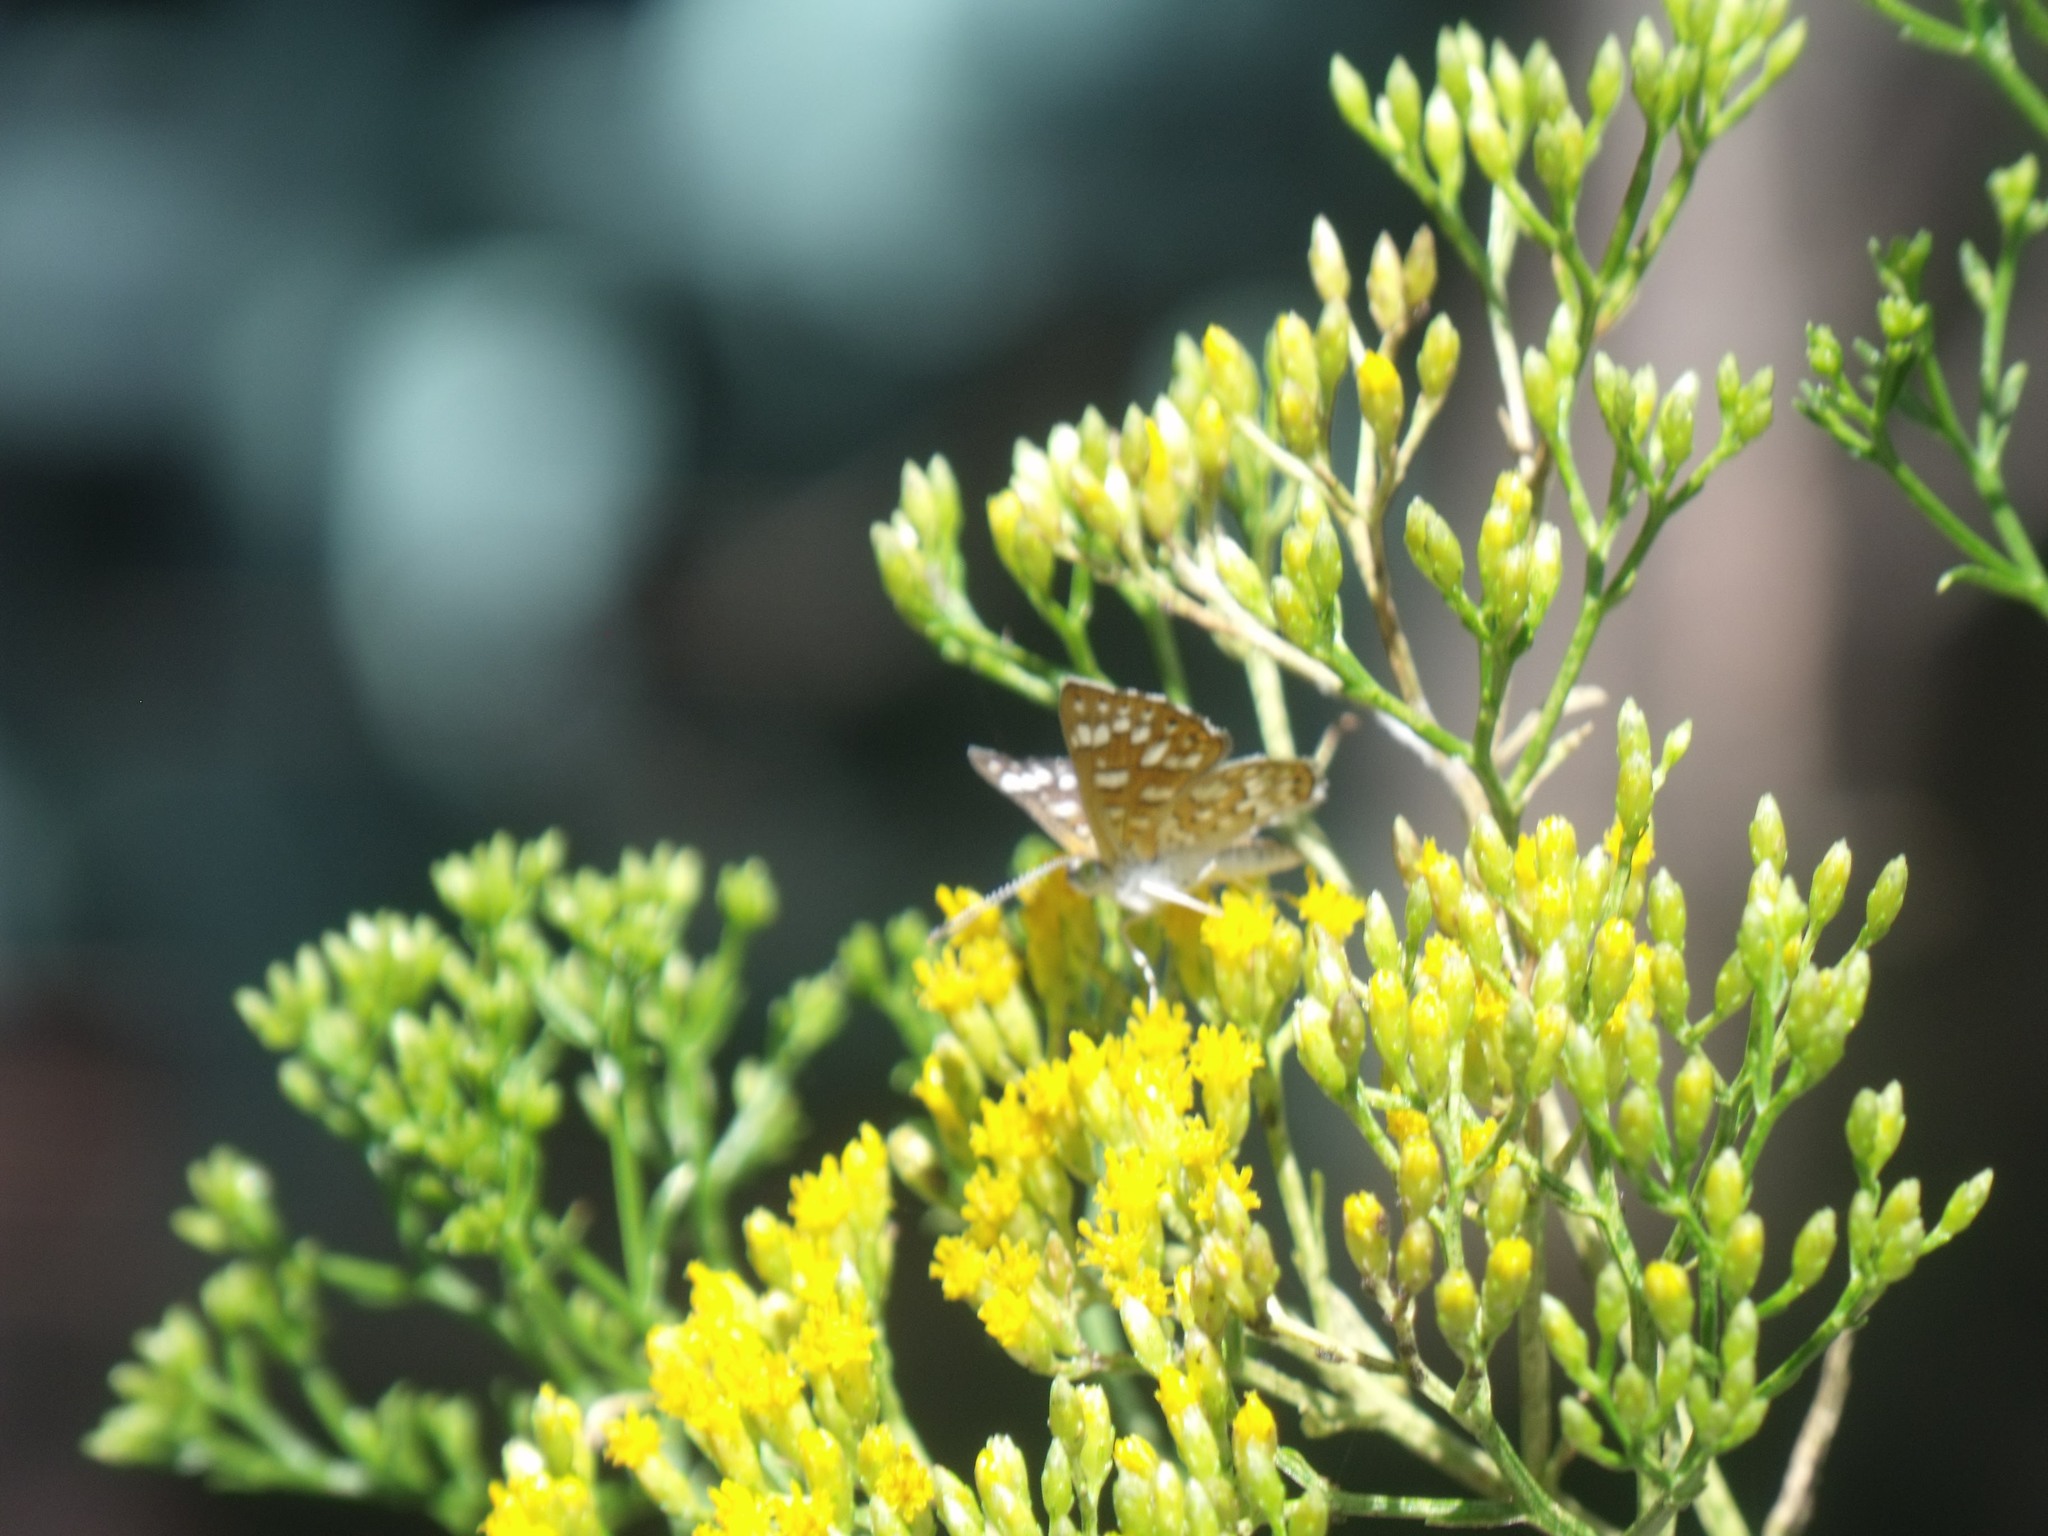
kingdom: Animalia
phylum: Arthropoda
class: Insecta
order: Lepidoptera
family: Riodinidae
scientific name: Riodinidae
